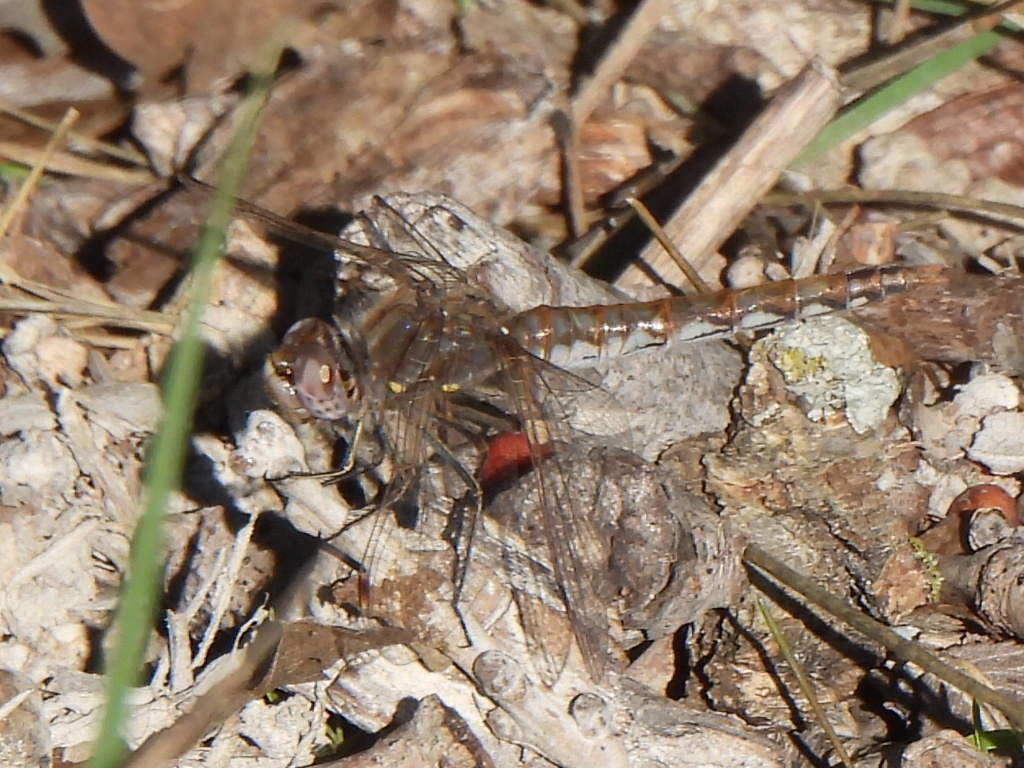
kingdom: Animalia
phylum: Arthropoda
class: Insecta
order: Odonata
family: Libellulidae
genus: Sympetrum
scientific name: Sympetrum corruptum
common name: Variegated meadowhawk
